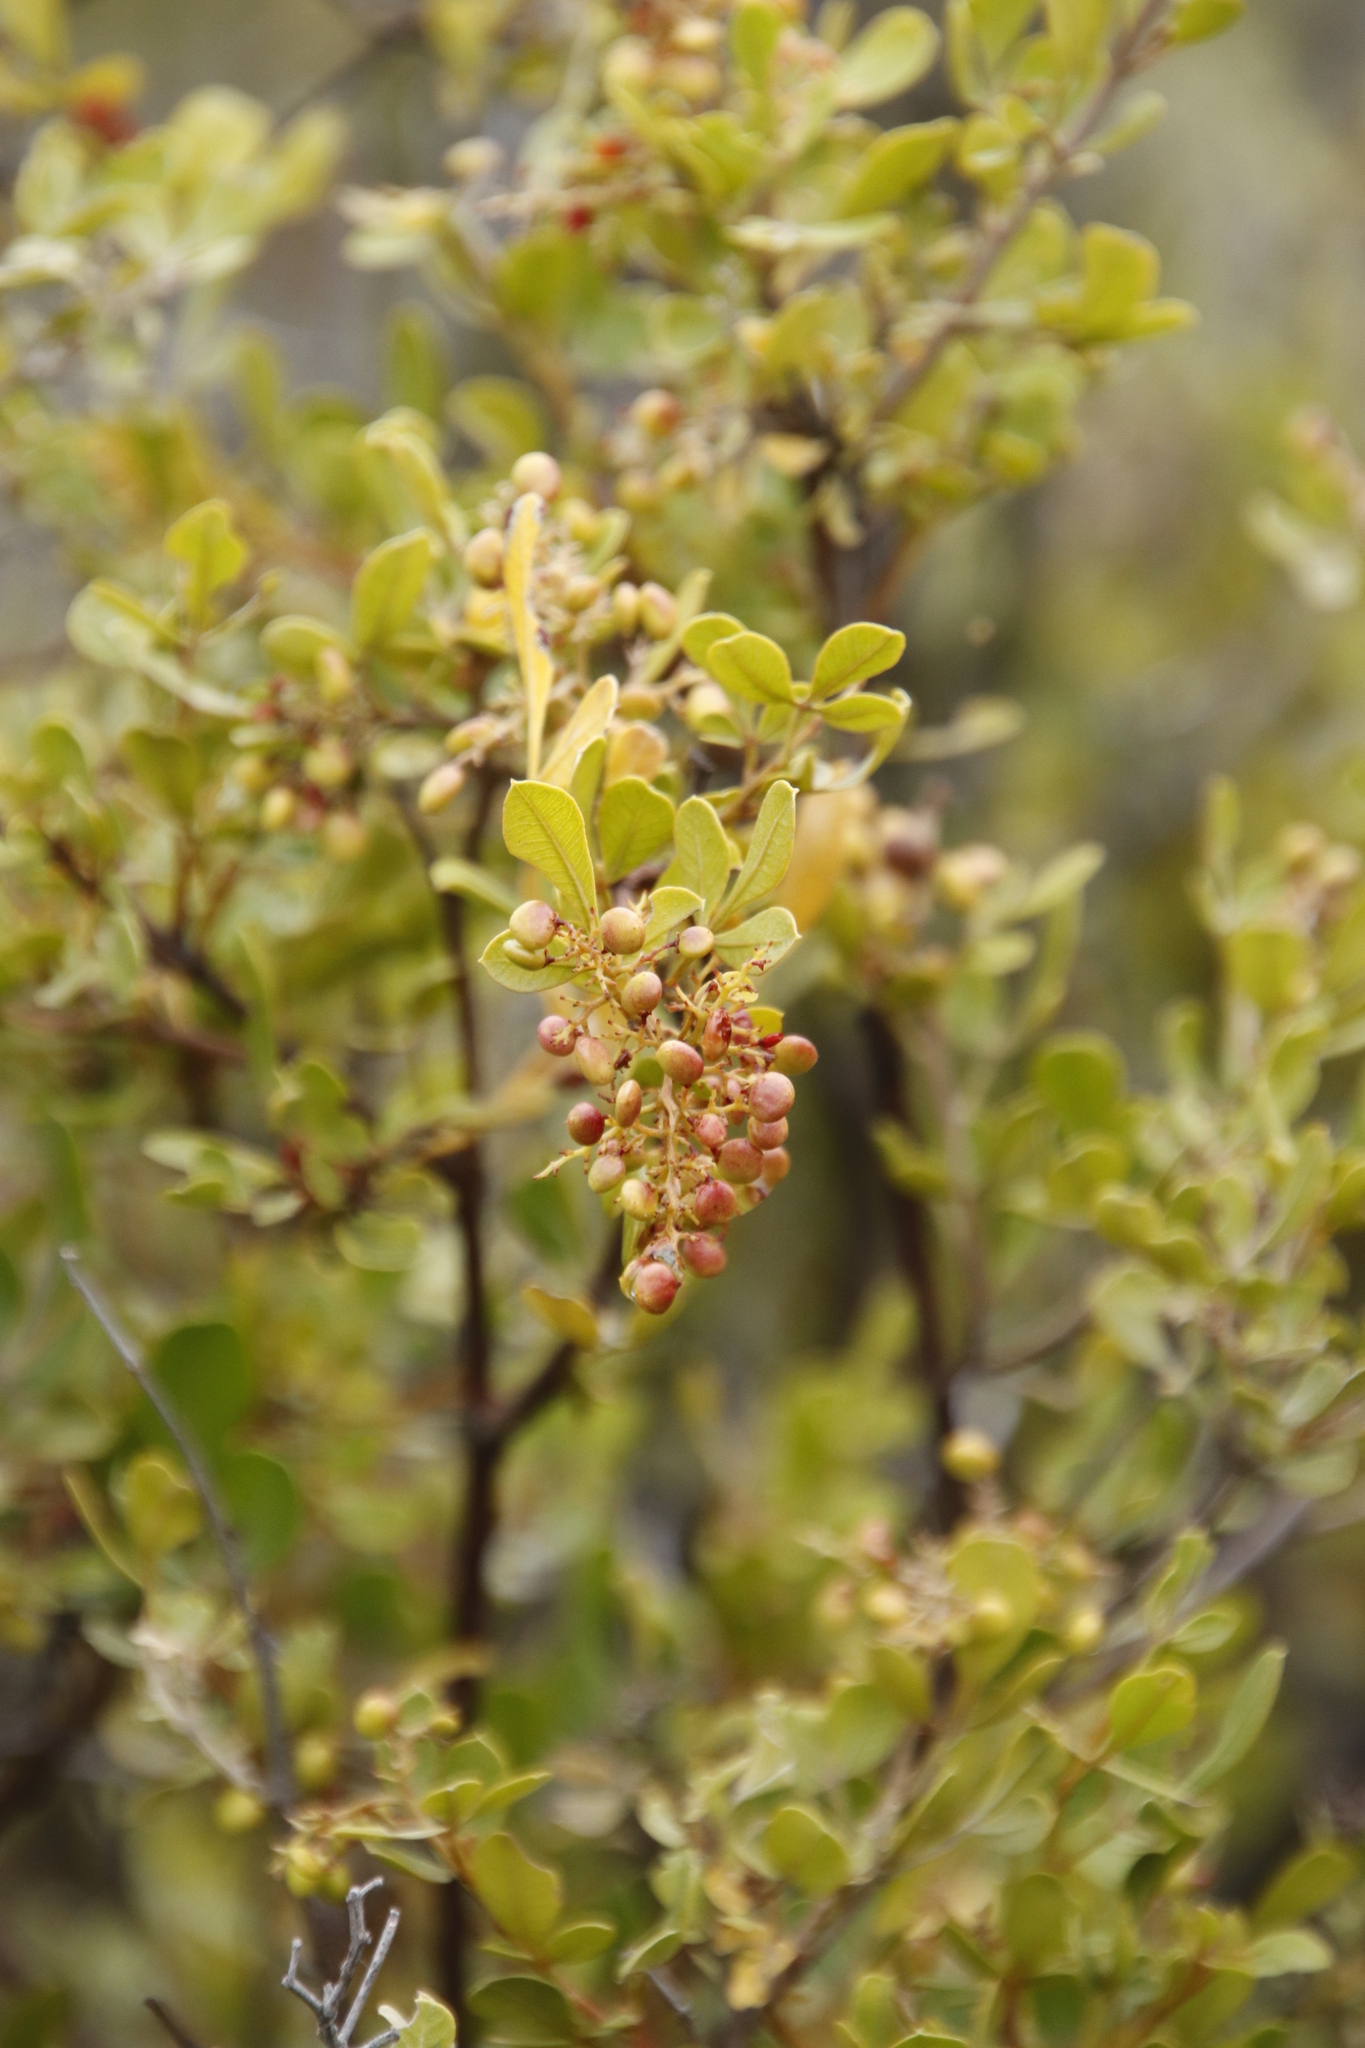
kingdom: Plantae
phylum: Tracheophyta
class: Magnoliopsida
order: Sapindales
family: Anacardiaceae
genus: Searsia
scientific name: Searsia pallens
